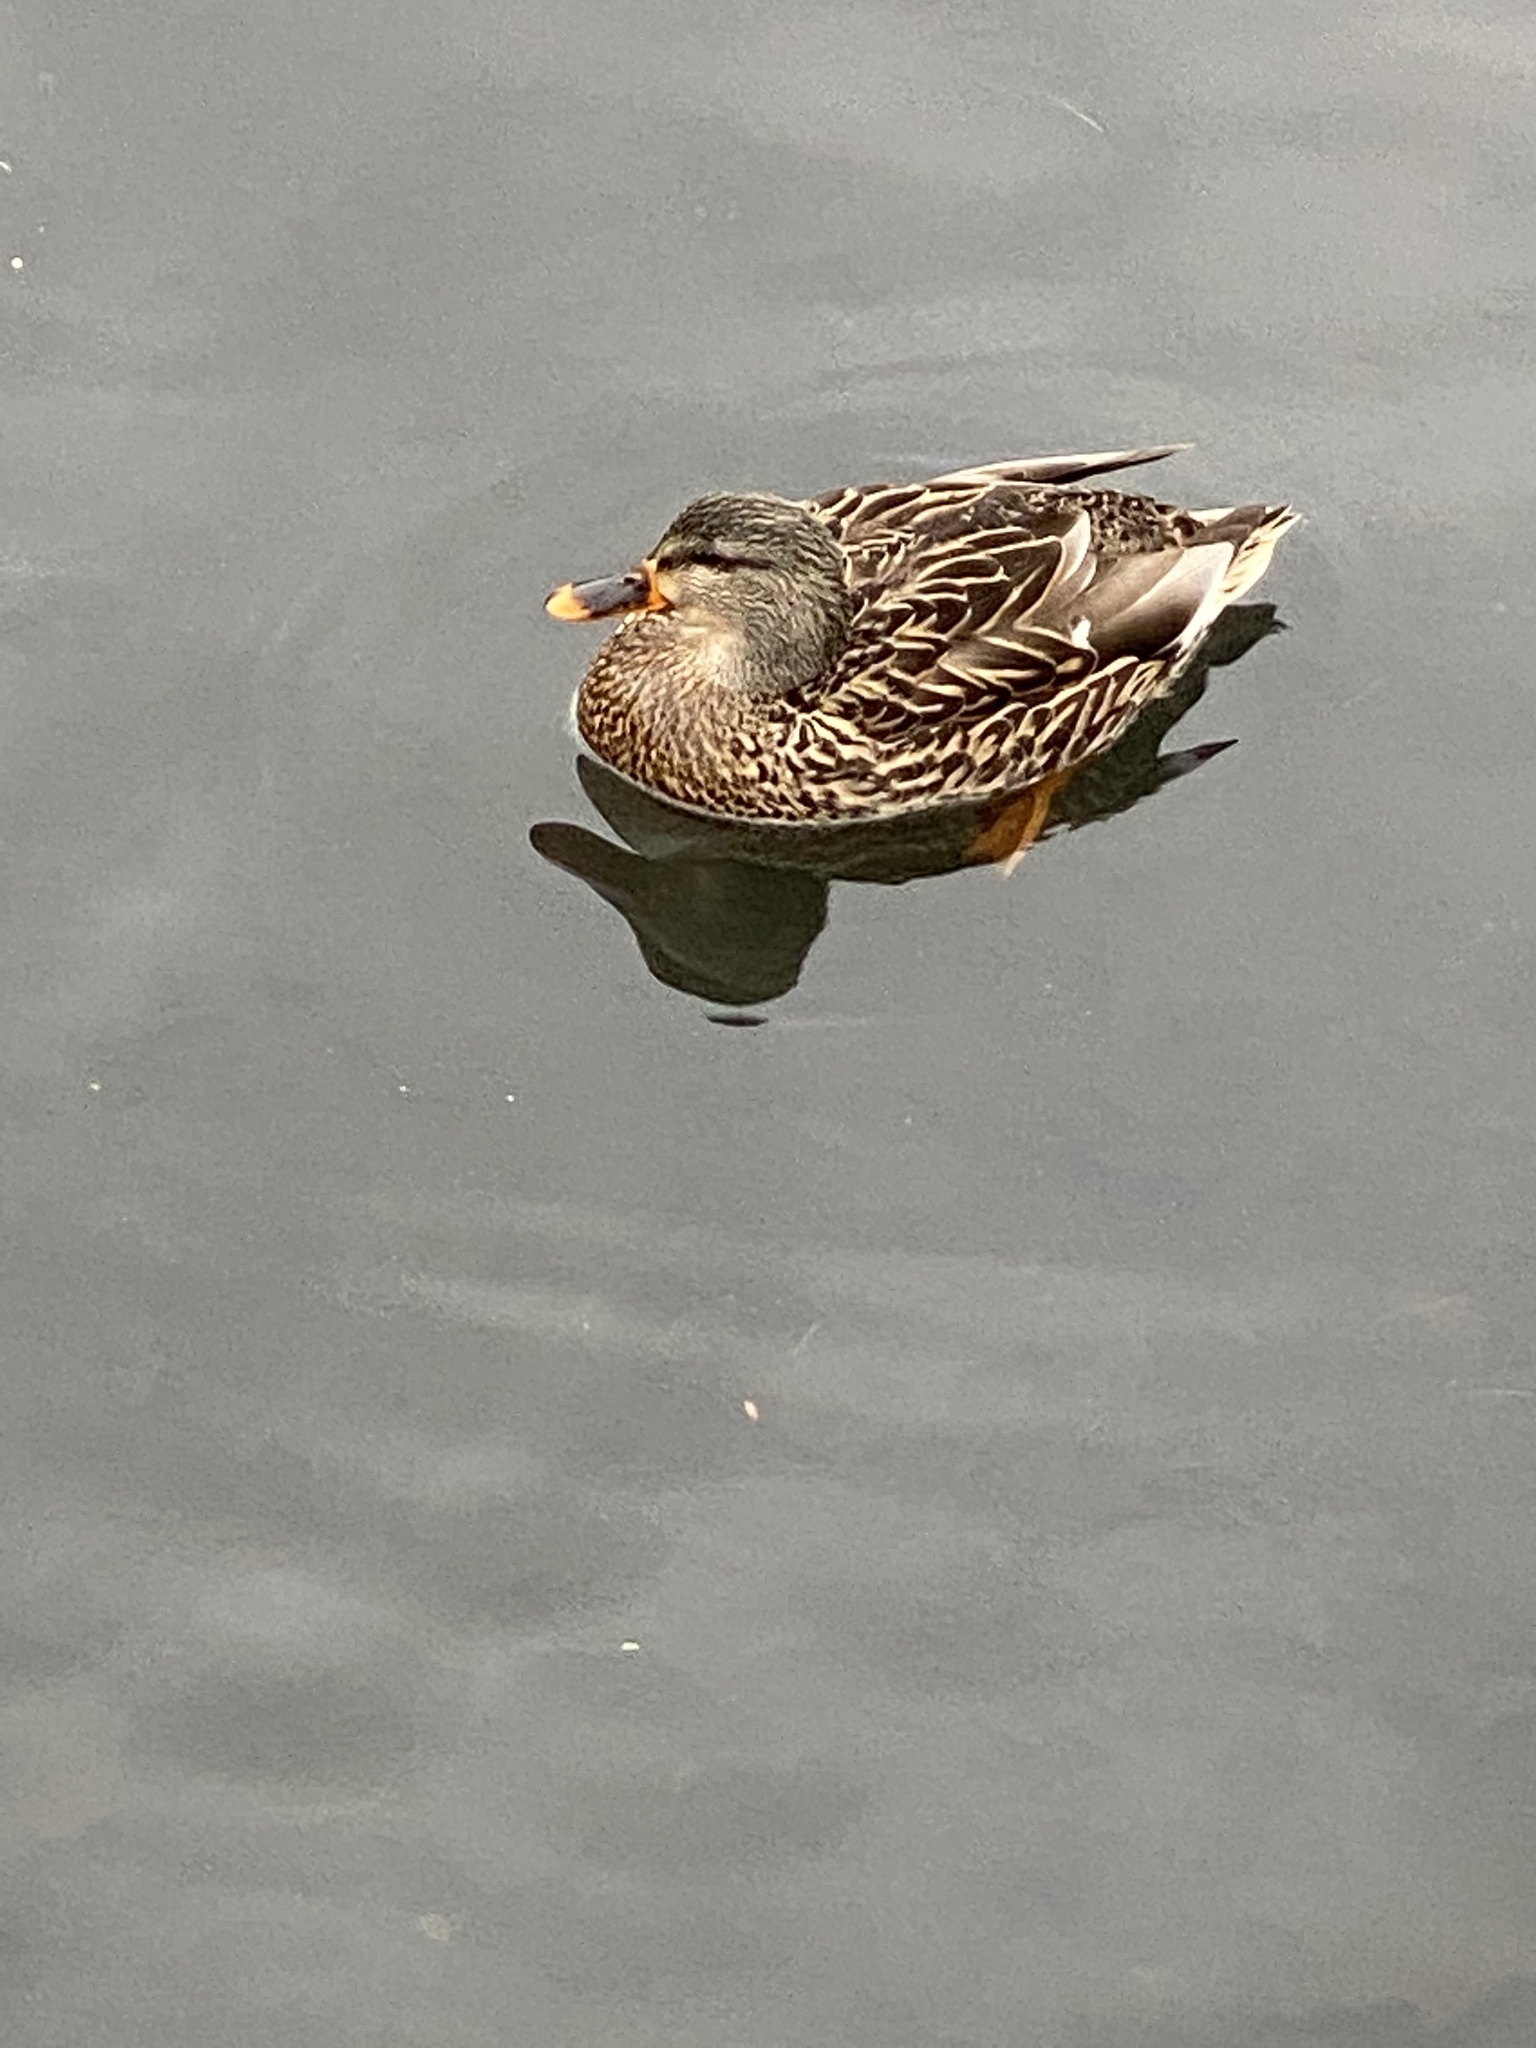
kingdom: Animalia
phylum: Chordata
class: Aves
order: Anseriformes
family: Anatidae
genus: Anas
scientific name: Anas platyrhynchos
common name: Mallard
